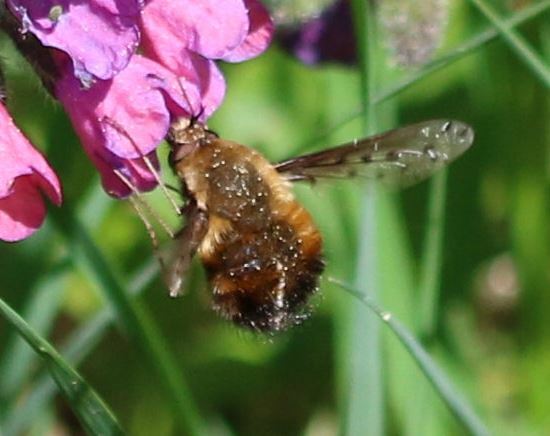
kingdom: Animalia
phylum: Arthropoda
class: Insecta
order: Diptera
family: Bombyliidae
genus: Bombylius
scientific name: Bombylius discolor
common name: Dotted bee-fly
